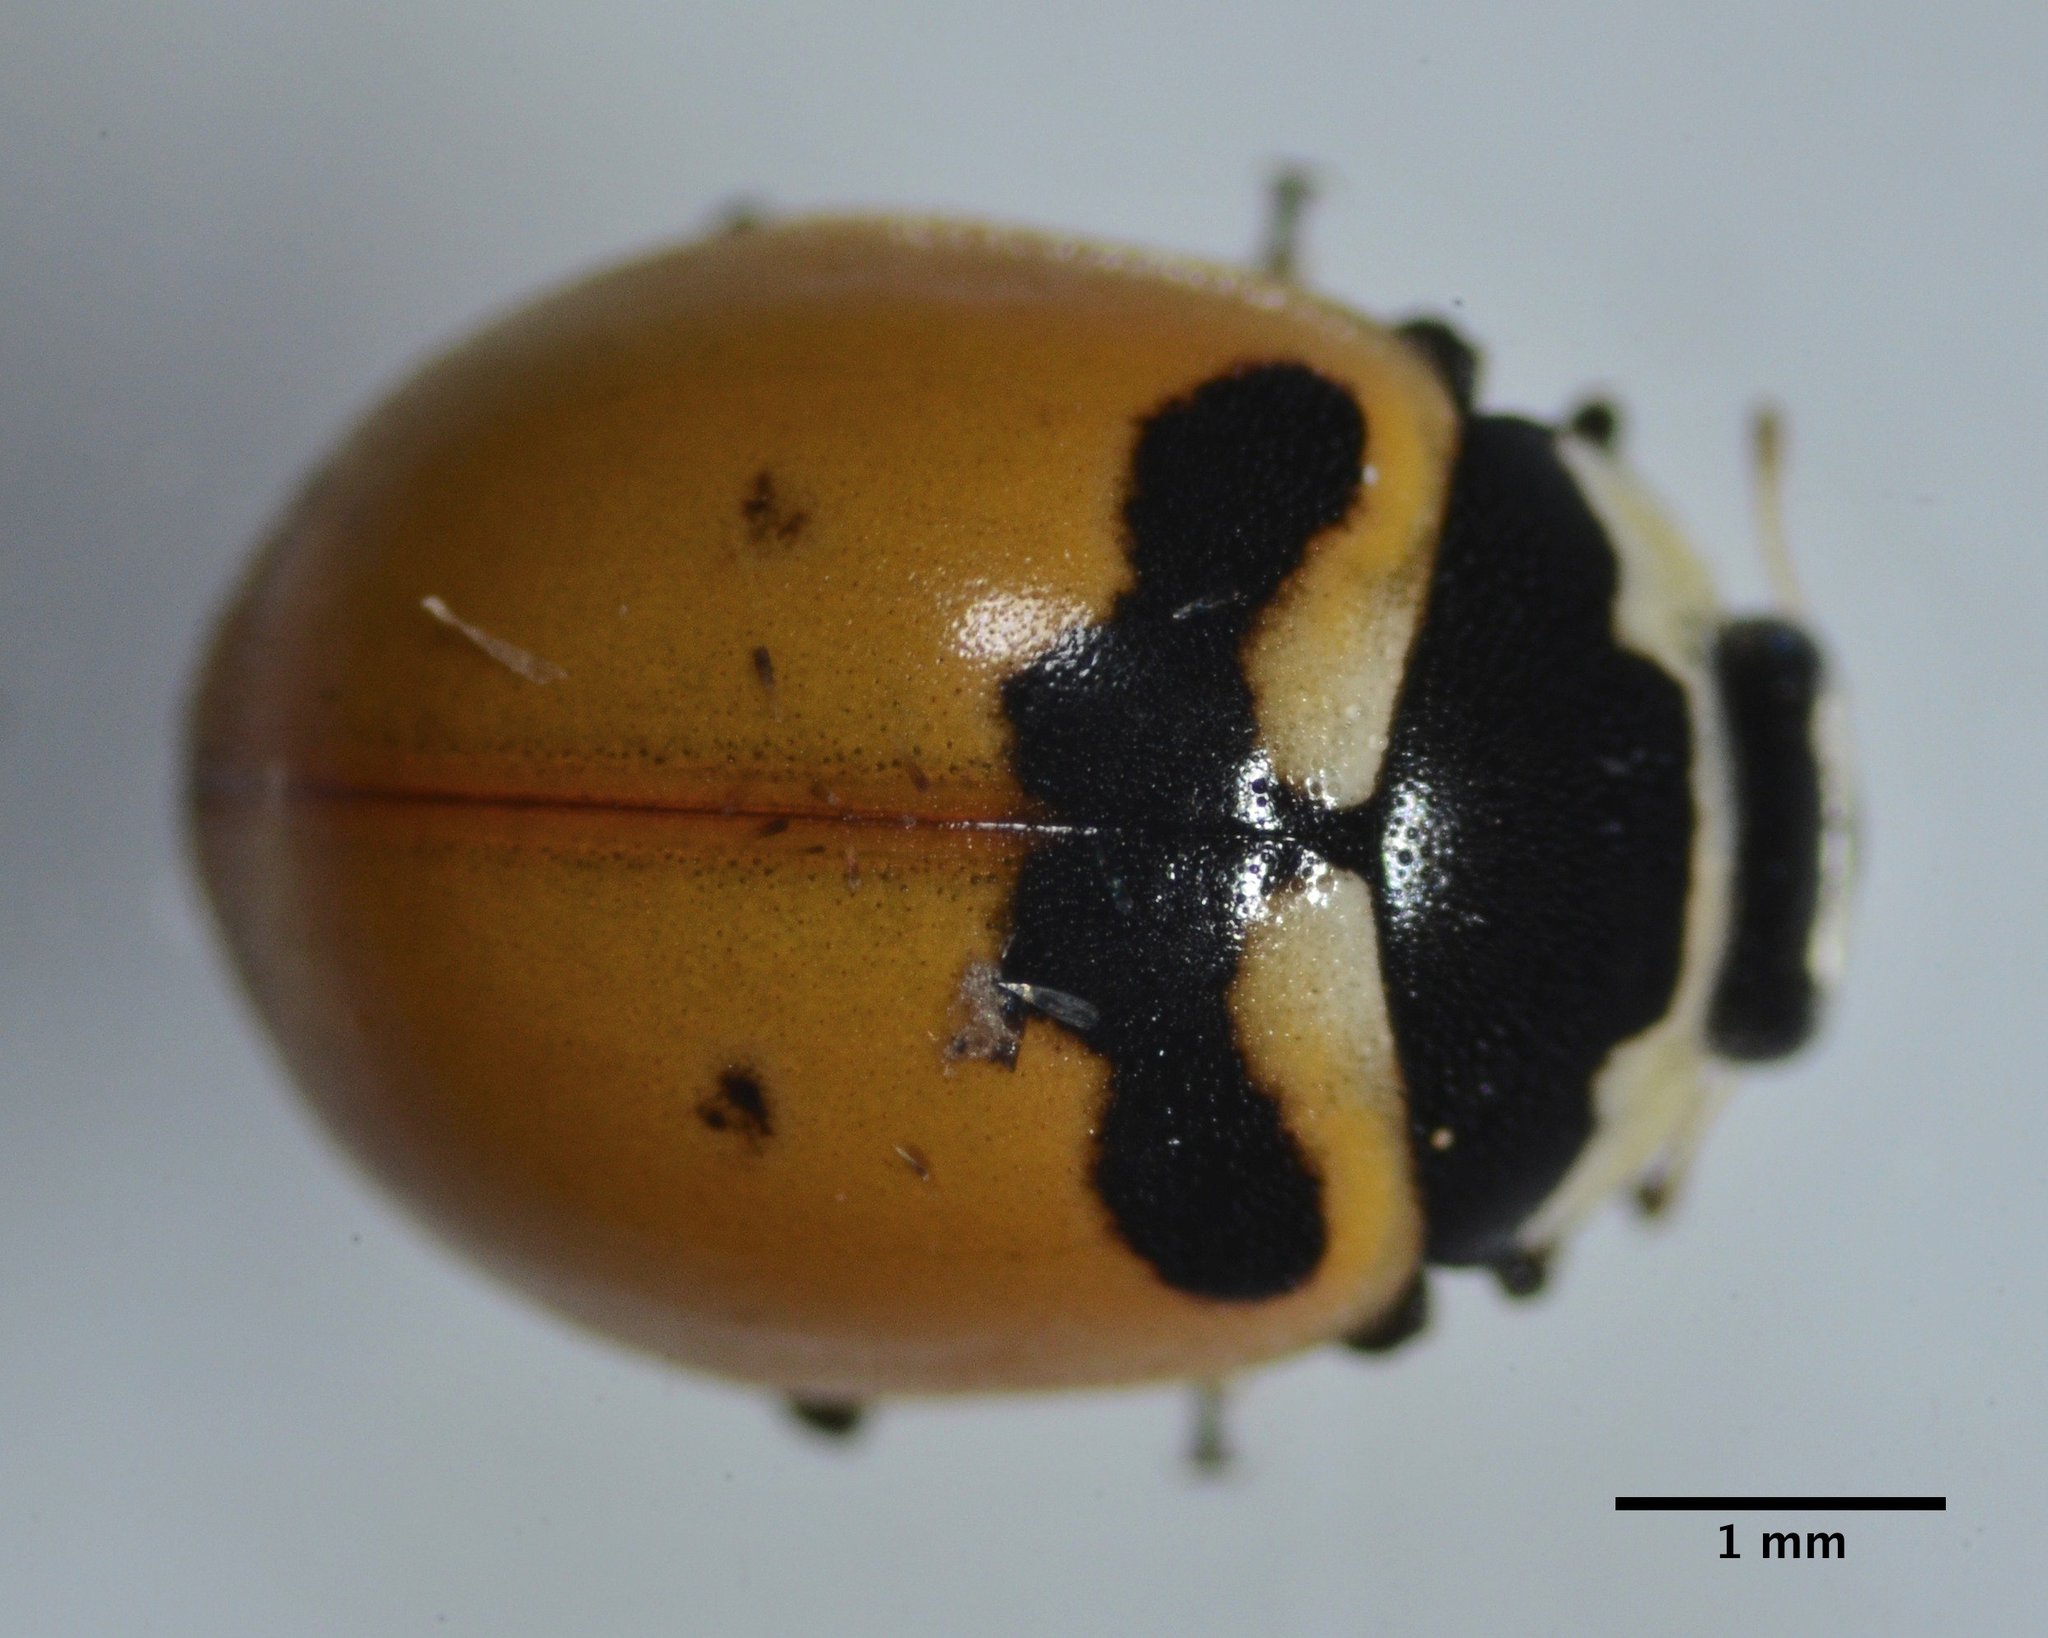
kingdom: Animalia
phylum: Arthropoda
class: Insecta
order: Coleoptera
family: Coccinellidae
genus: Coccinella
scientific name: Coccinella trifasciata
